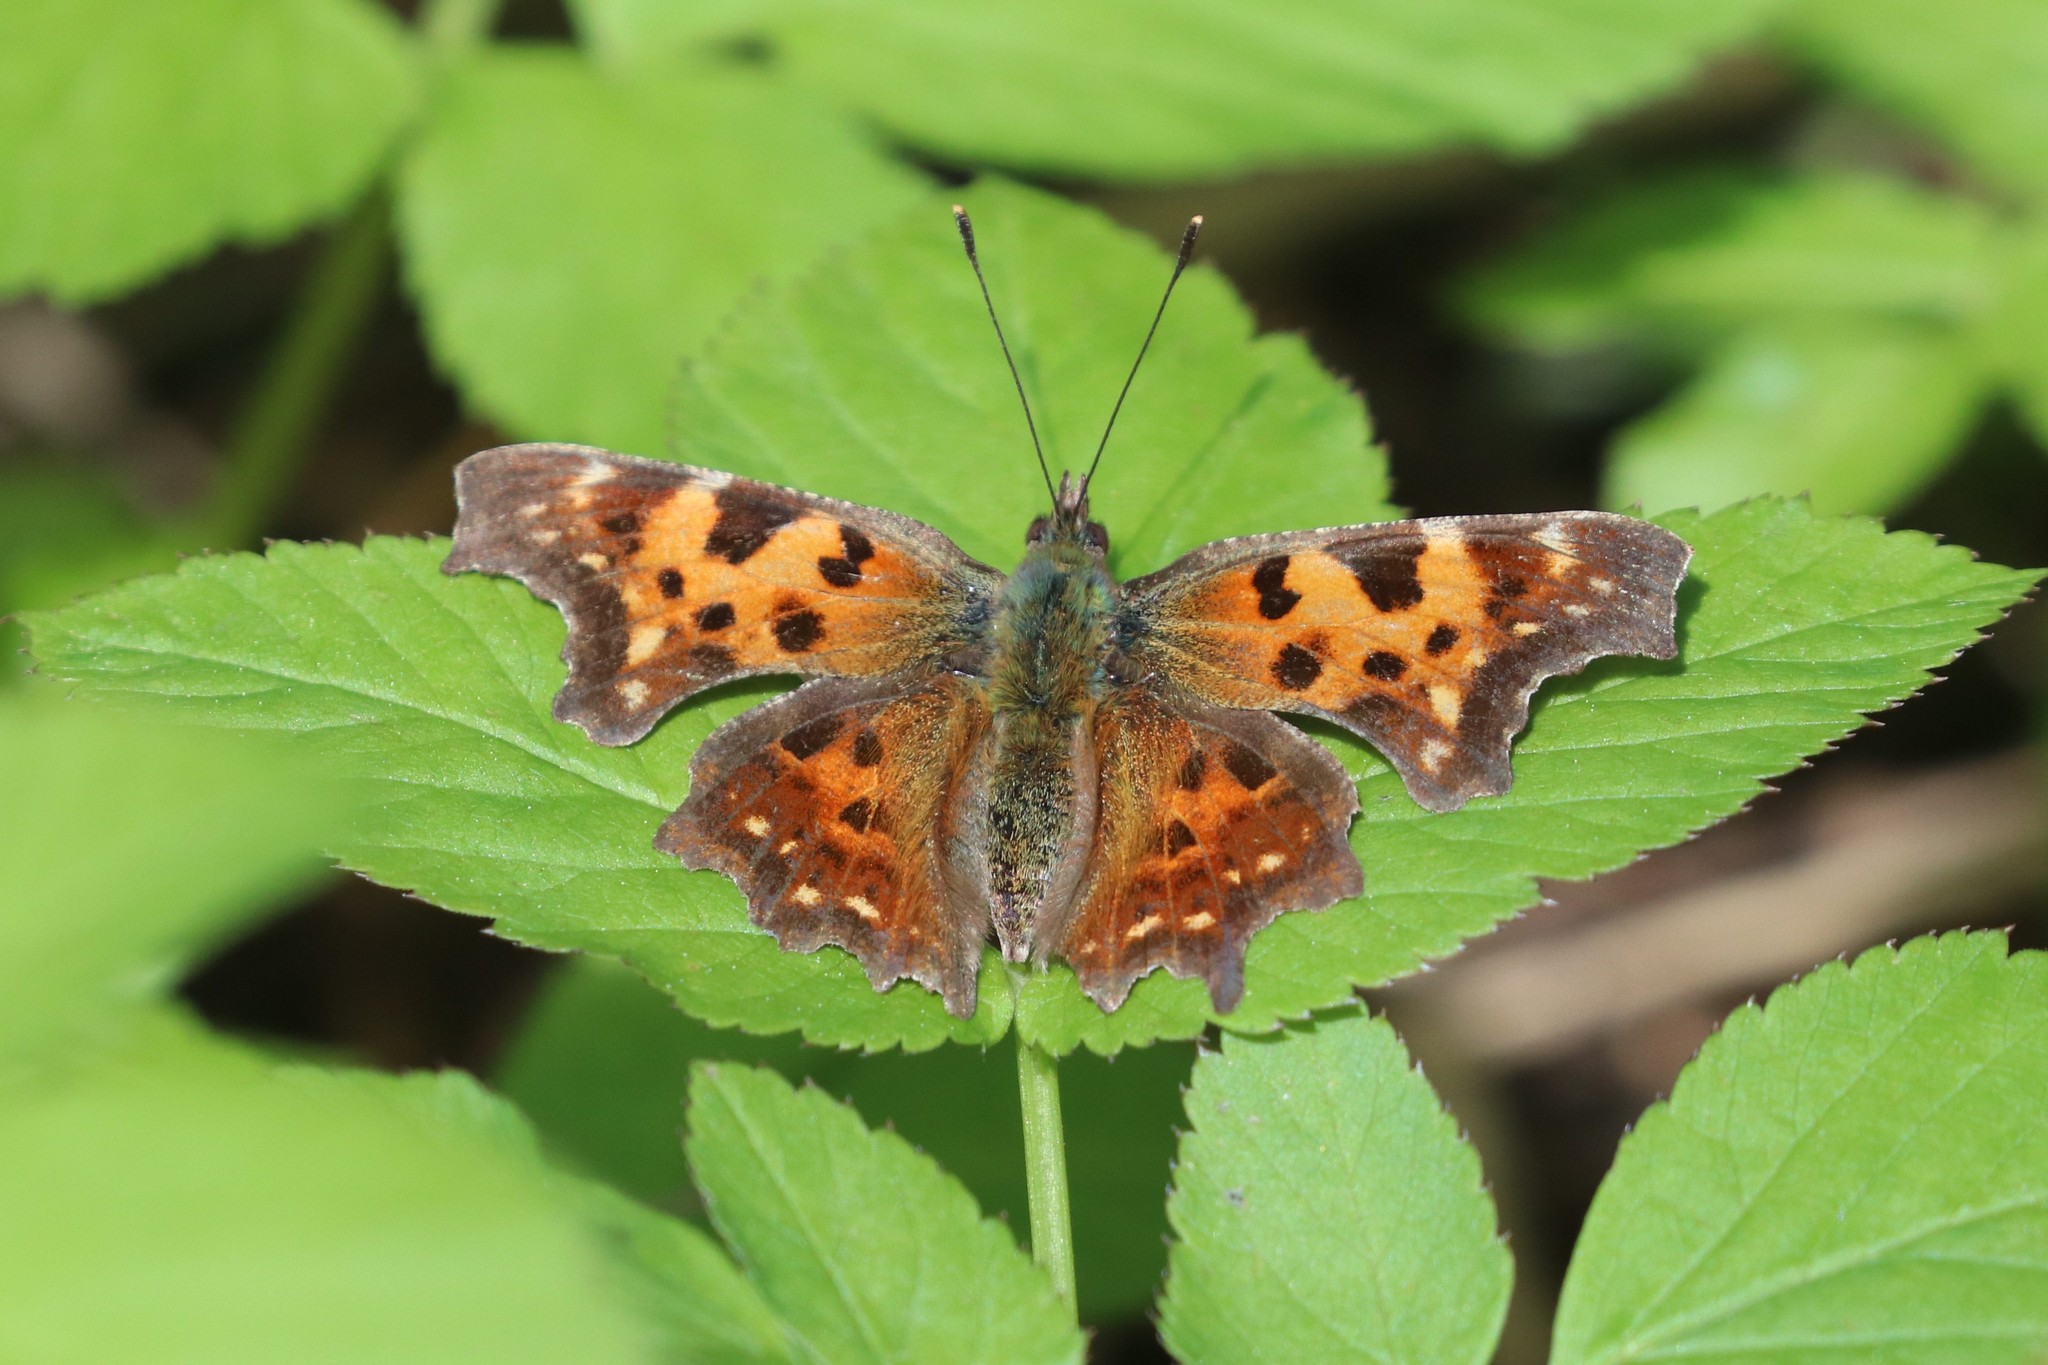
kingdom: Animalia
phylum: Arthropoda
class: Insecta
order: Lepidoptera
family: Nymphalidae
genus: Polygonia
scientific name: Polygonia c-album
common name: Comma
